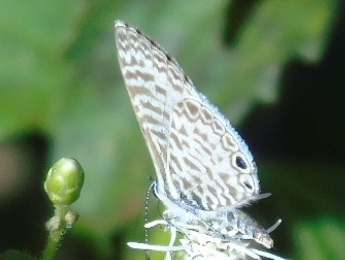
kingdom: Animalia
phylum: Arthropoda
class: Insecta
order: Lepidoptera
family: Lycaenidae
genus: Leptotes
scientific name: Leptotes theonus
